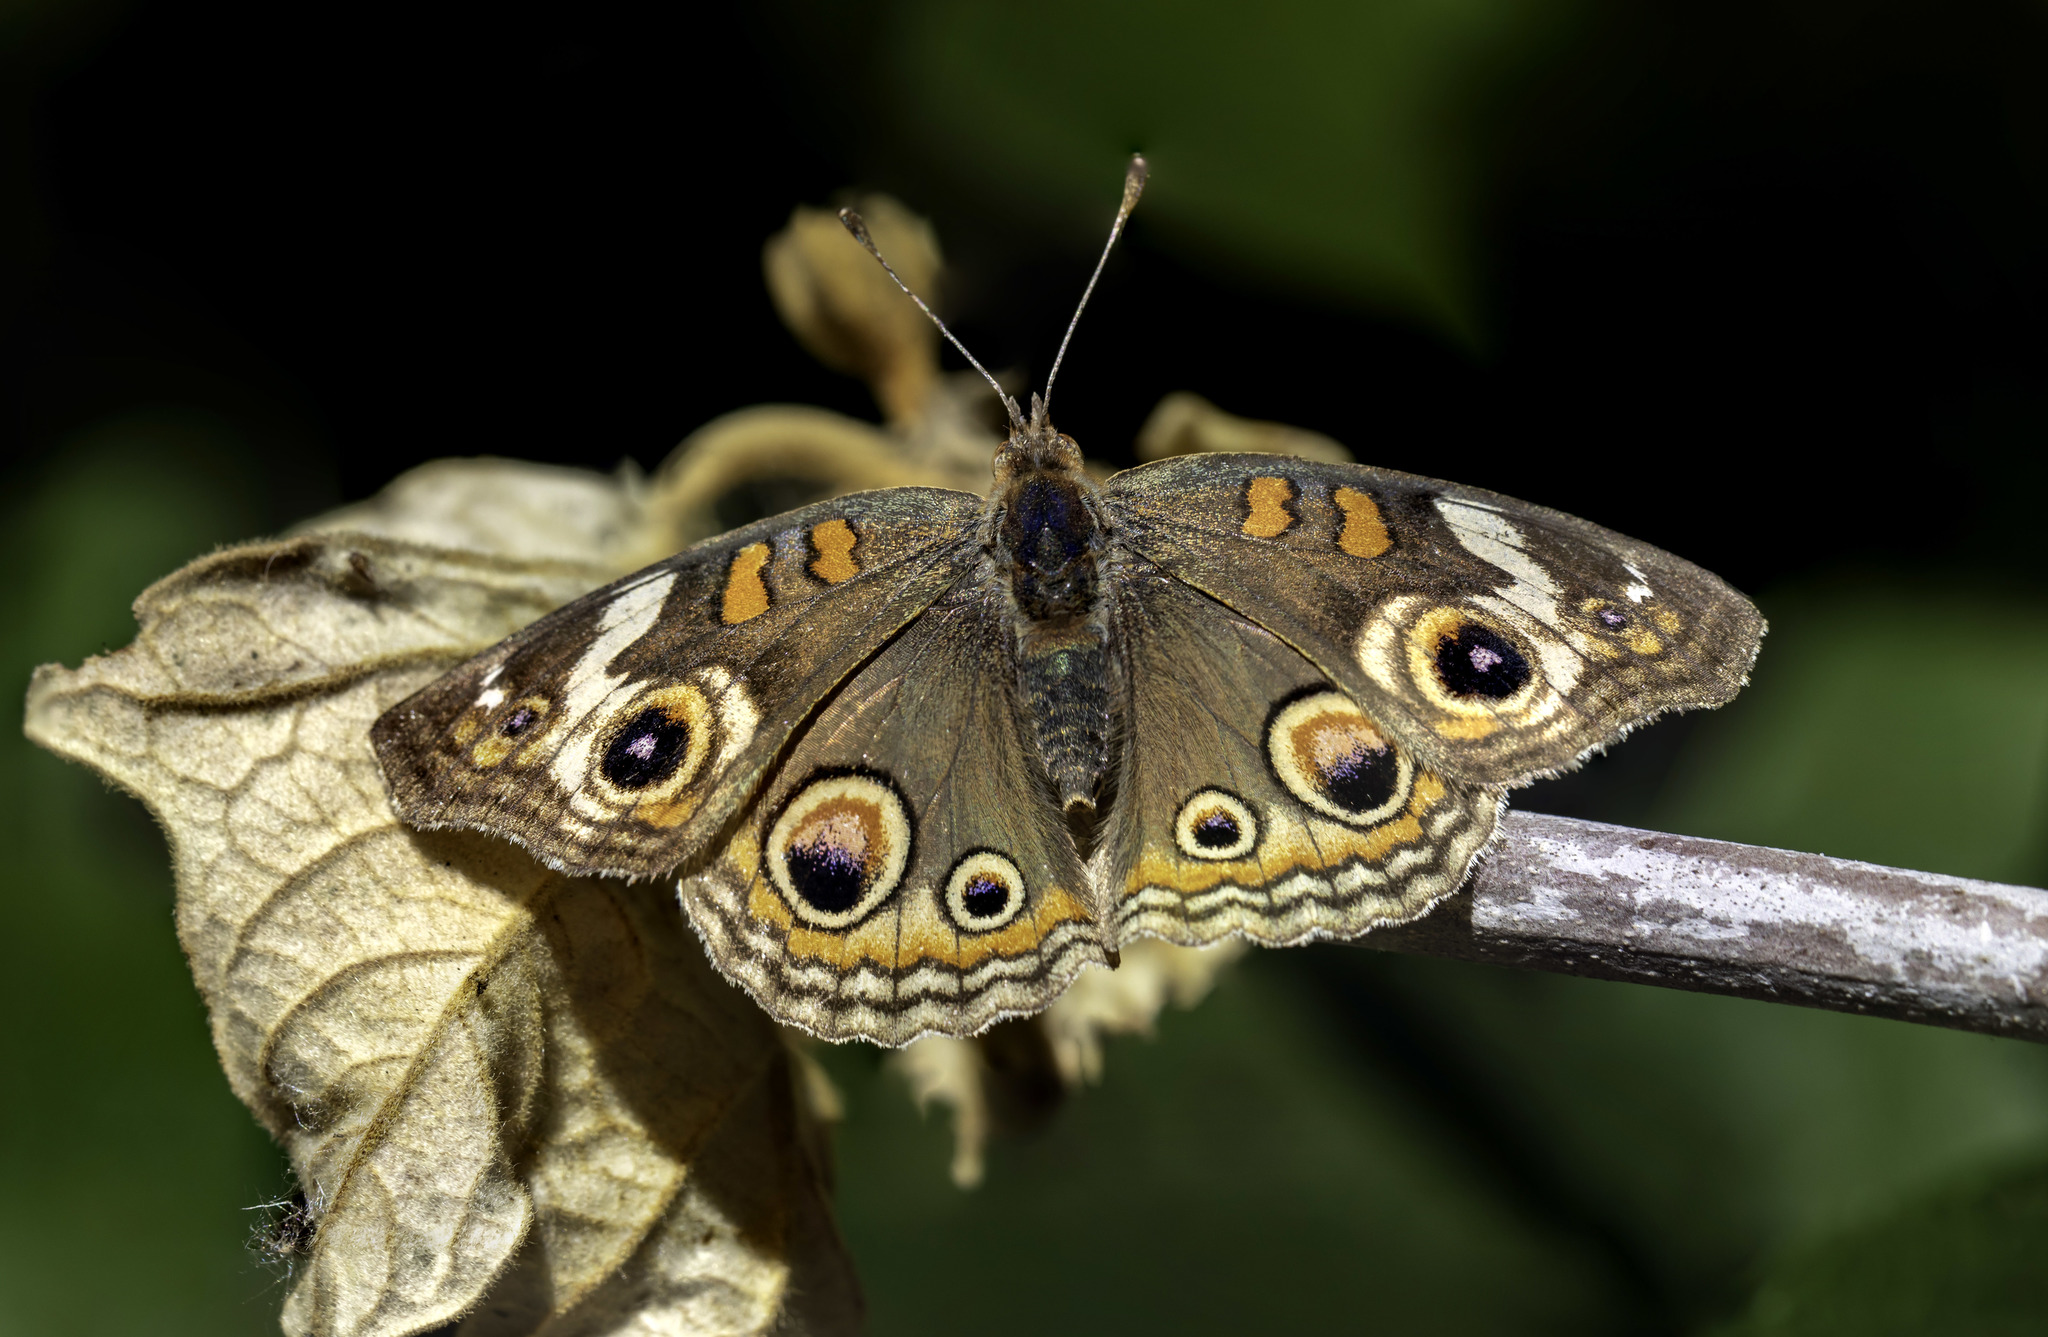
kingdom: Animalia
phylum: Arthropoda
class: Insecta
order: Lepidoptera
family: Nymphalidae
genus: Junonia
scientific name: Junonia grisea
